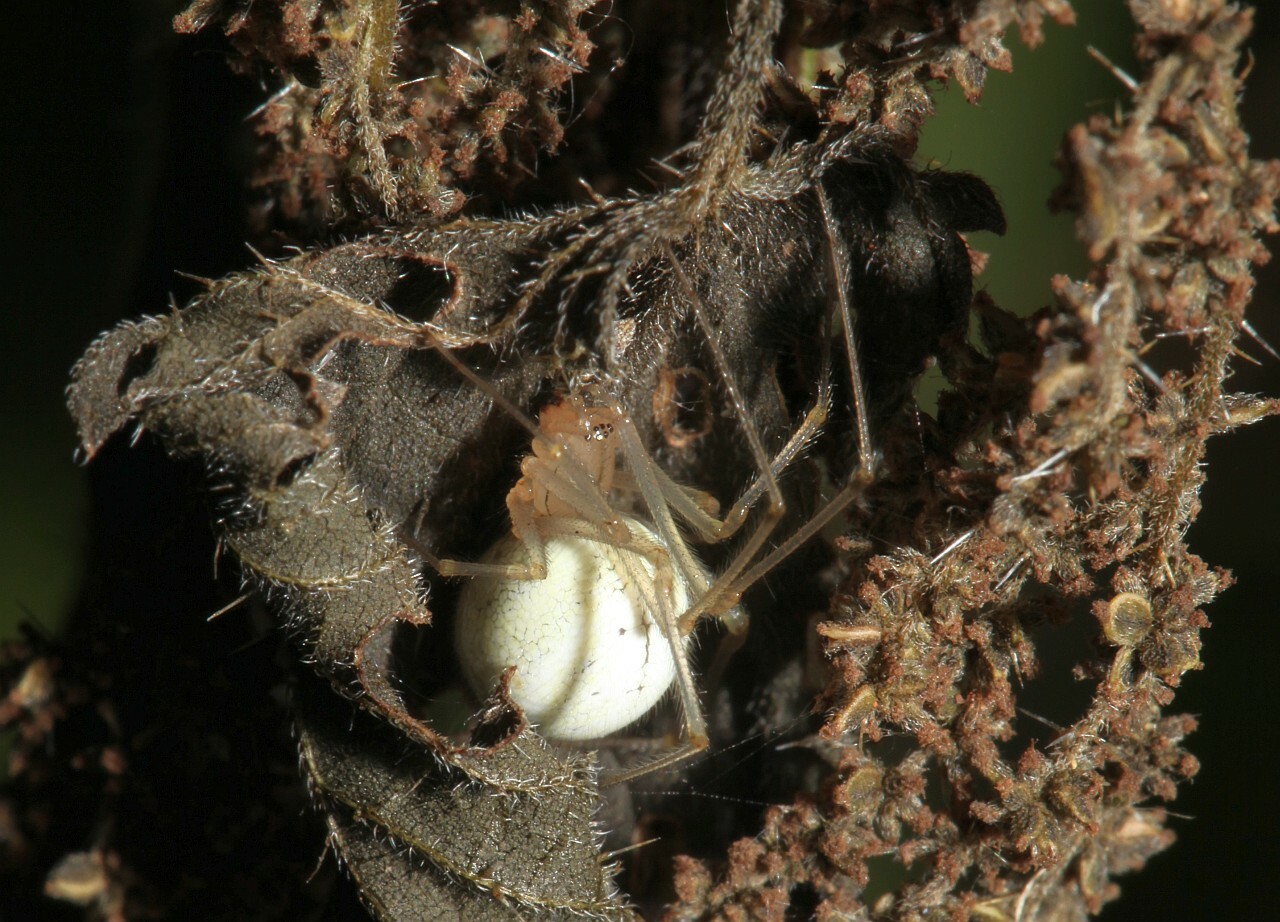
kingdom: Animalia
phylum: Arthropoda
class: Arachnida
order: Araneae
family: Theridiidae
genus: Enoplognatha
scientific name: Enoplognatha ovata
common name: Common candy-striped spider
